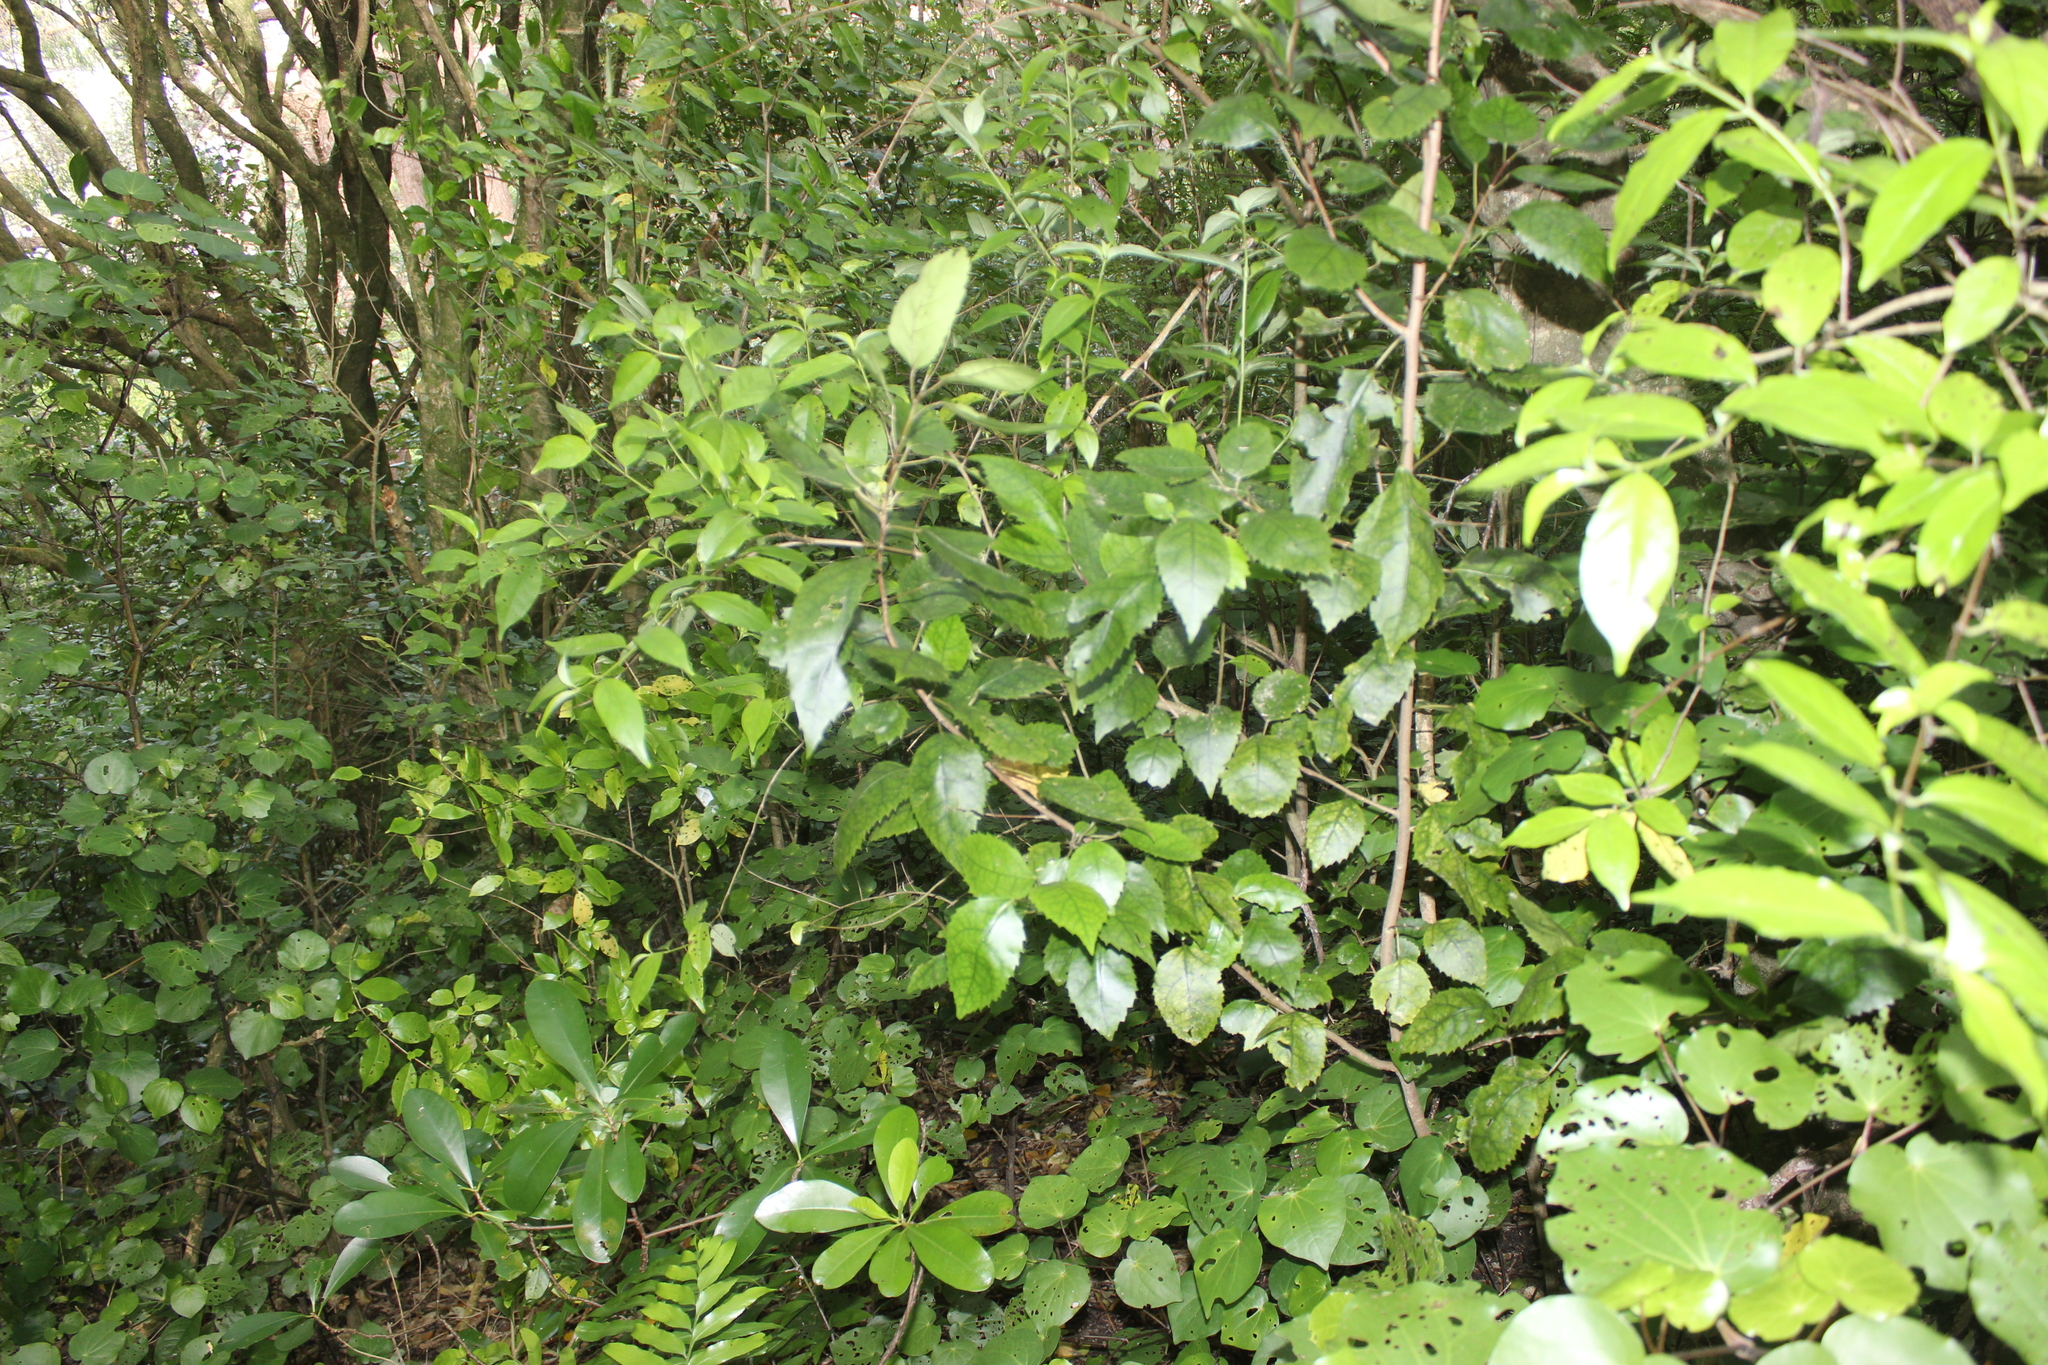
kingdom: Plantae
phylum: Tracheophyta
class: Magnoliopsida
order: Malvales
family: Malvaceae
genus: Hoheria
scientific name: Hoheria populnea
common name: Lacebark
